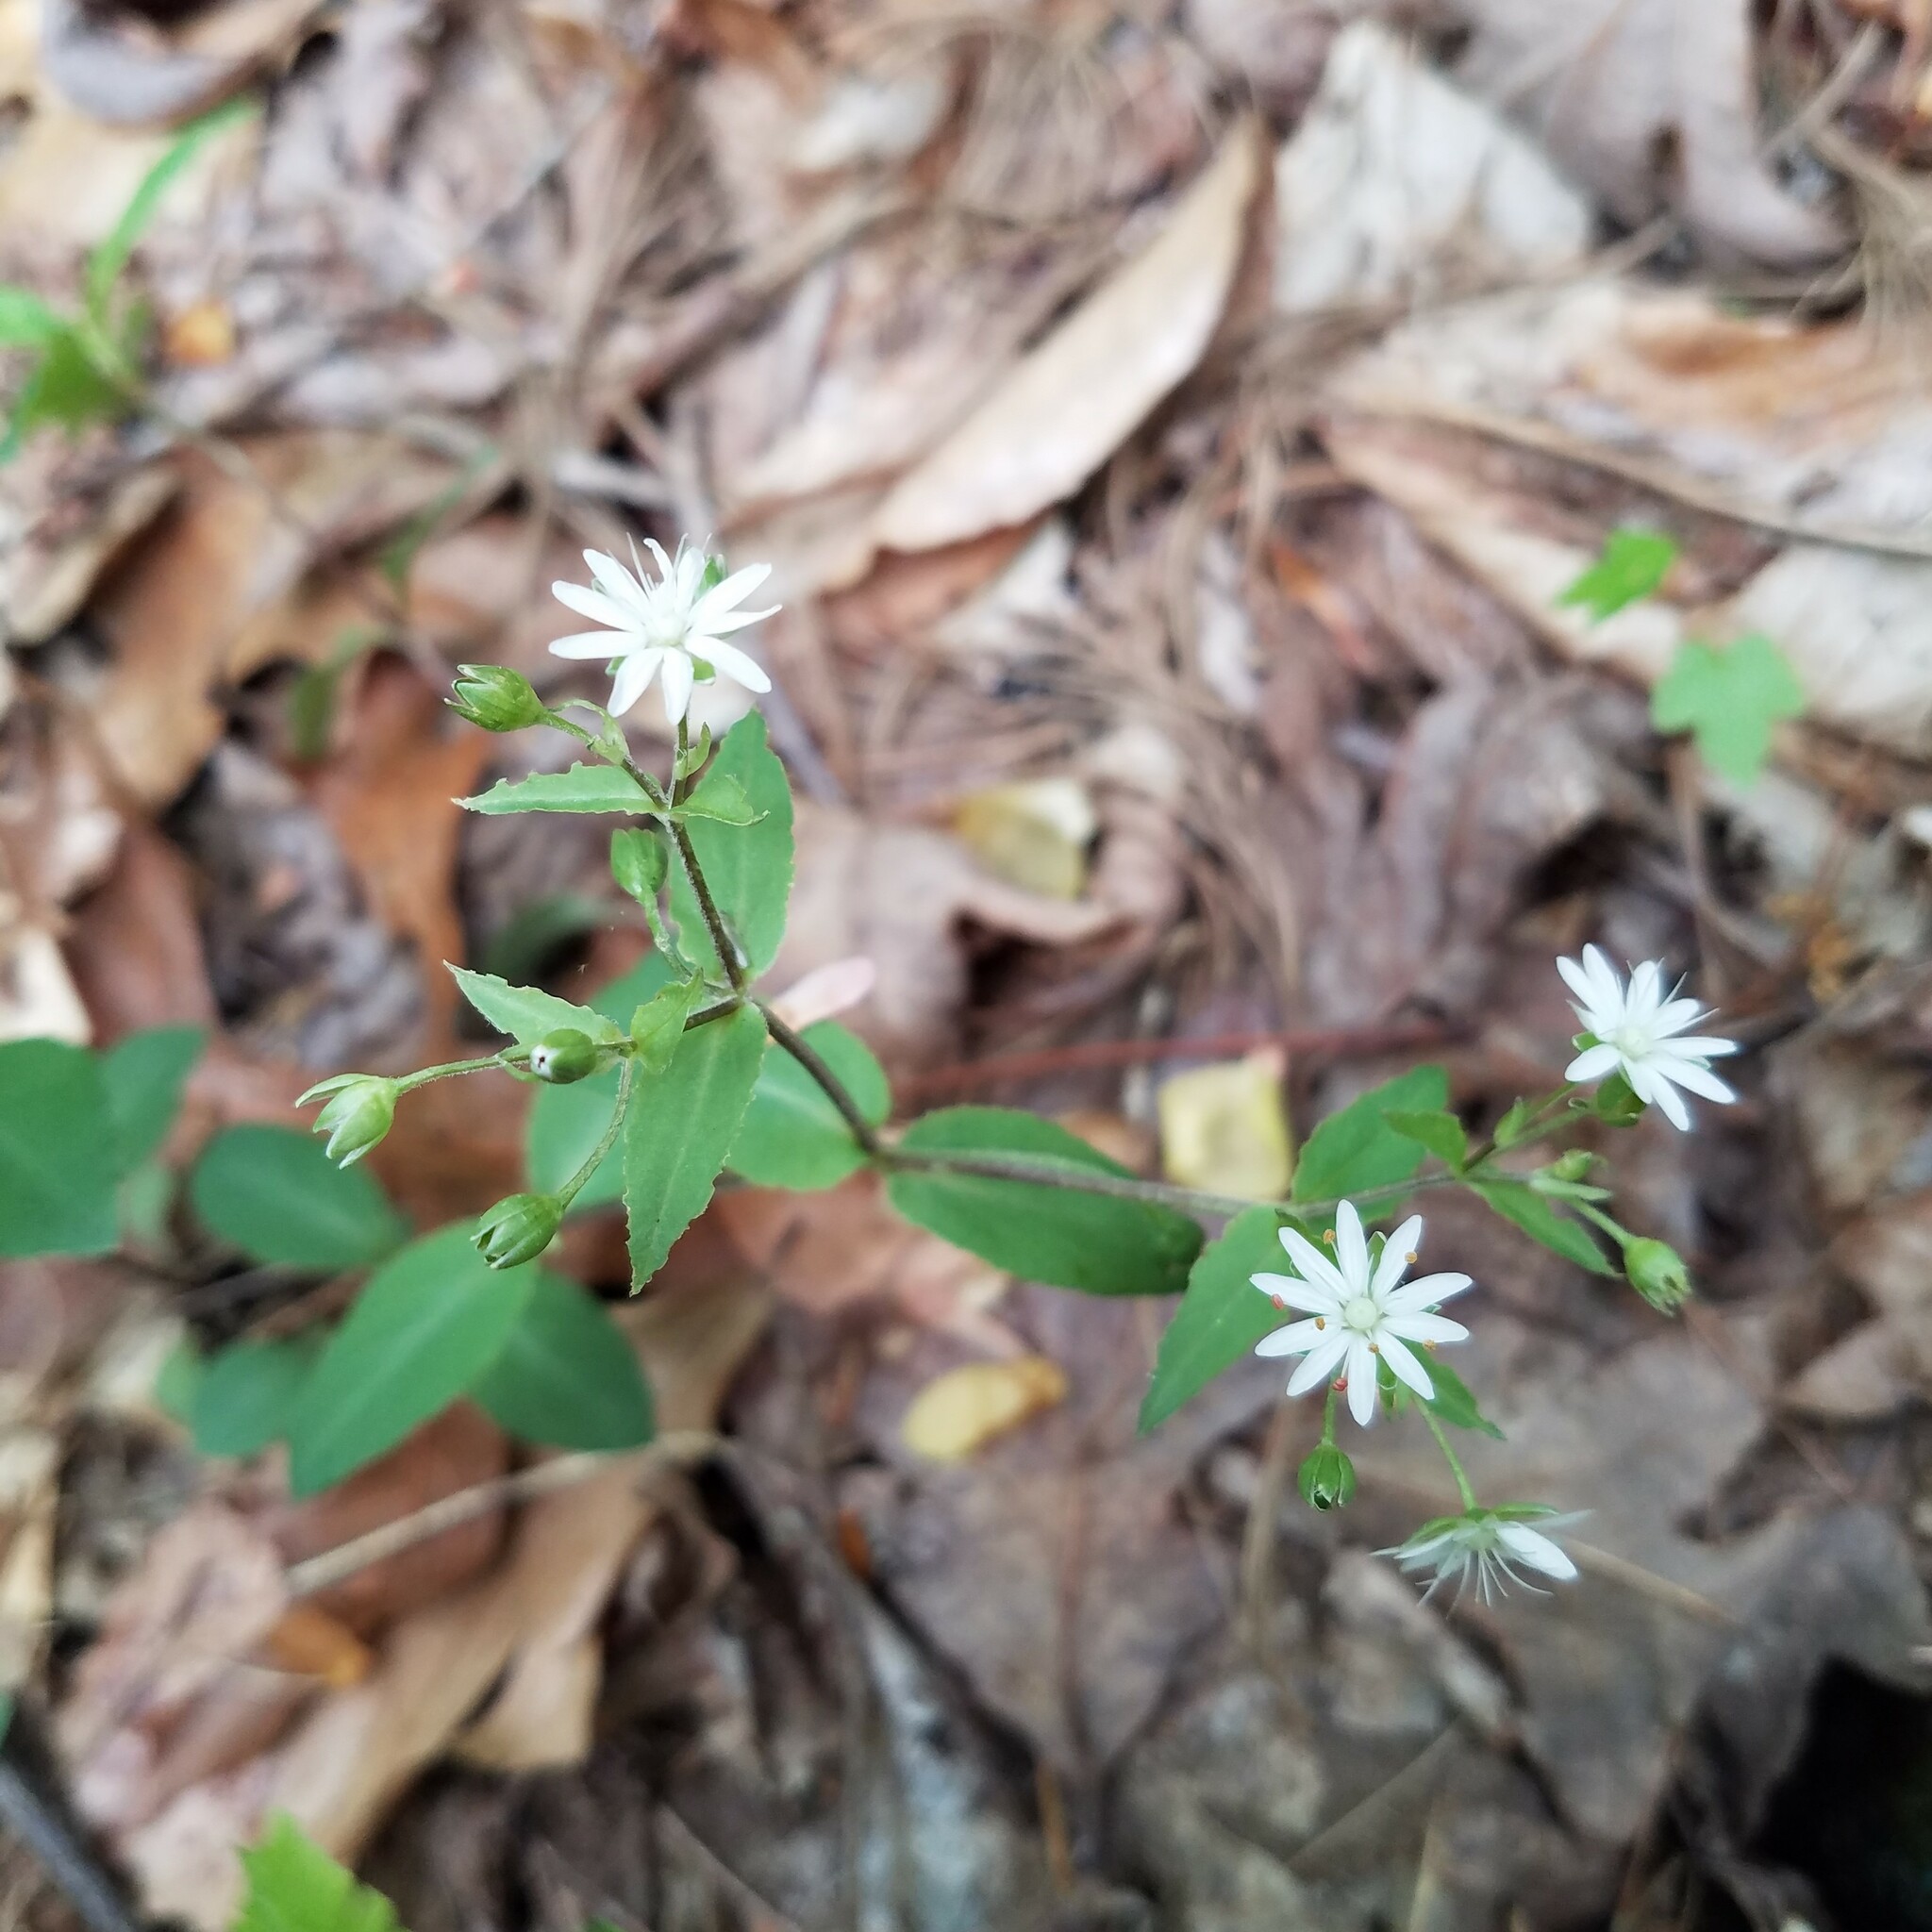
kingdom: Plantae
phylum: Tracheophyta
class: Magnoliopsida
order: Caryophyllales
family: Caryophyllaceae
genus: Stellaria
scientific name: Stellaria pubera
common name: Star chickweed
